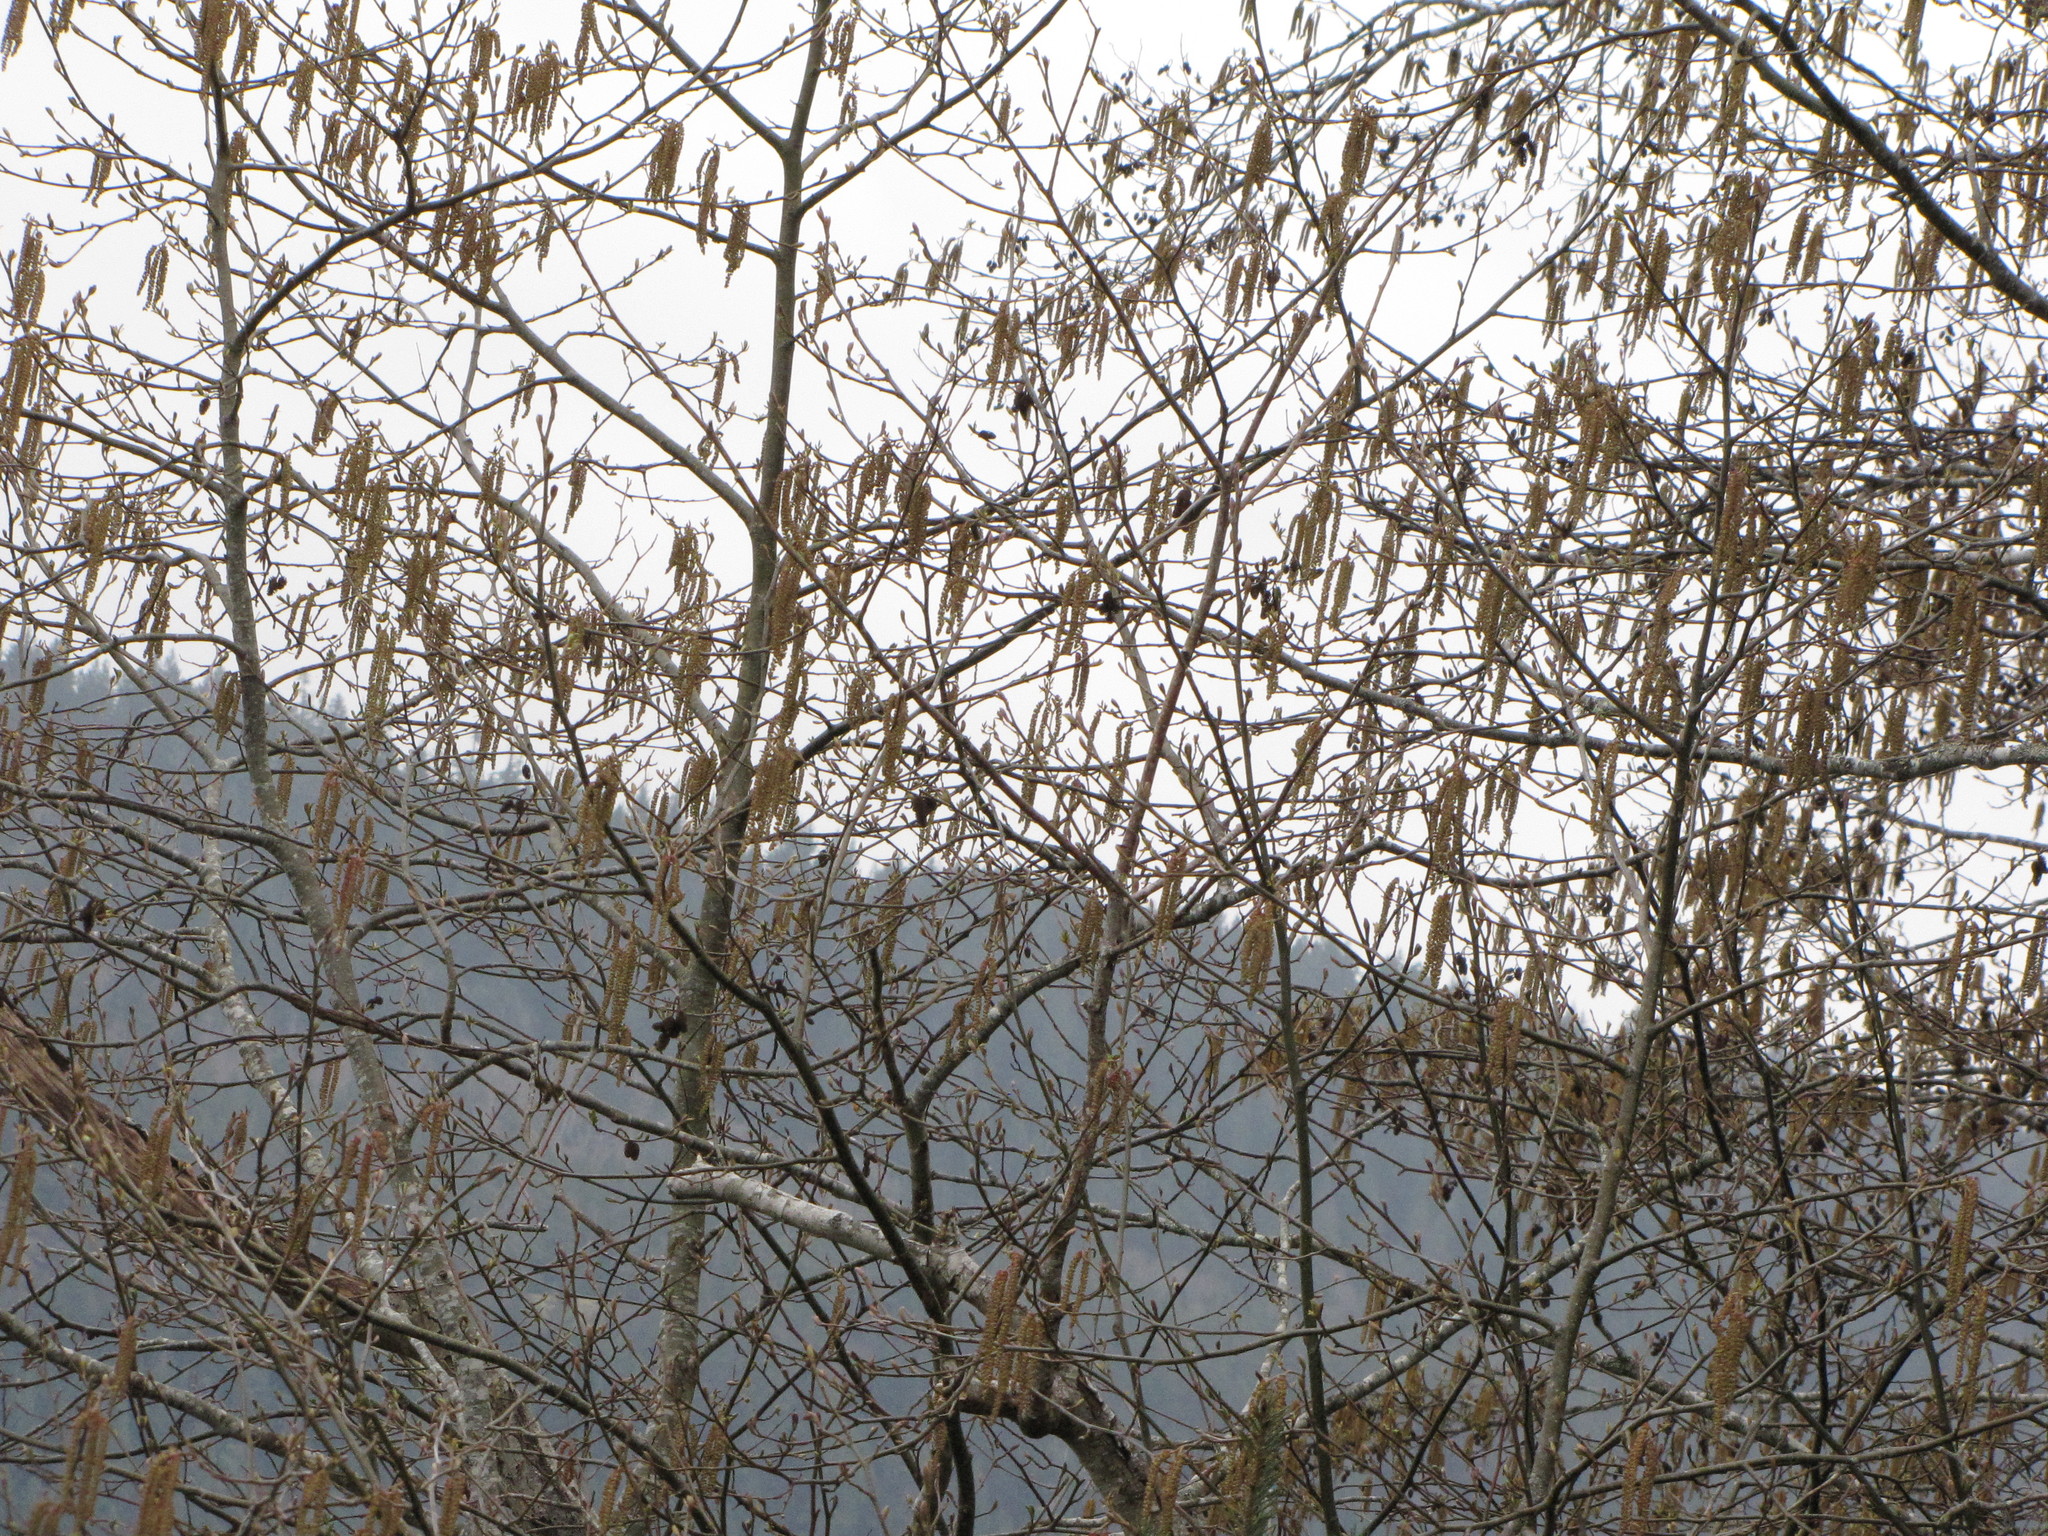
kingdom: Plantae
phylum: Tracheophyta
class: Magnoliopsida
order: Fagales
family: Betulaceae
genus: Alnus
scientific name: Alnus rubra
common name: Red alder
